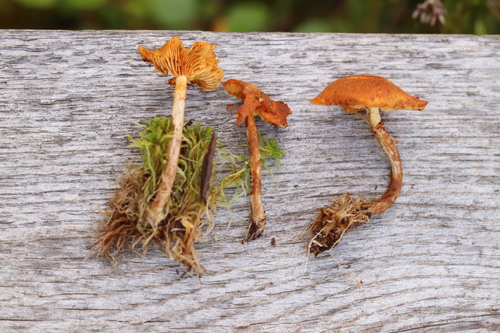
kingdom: Fungi
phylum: Basidiomycota
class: Agaricomycetes
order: Agaricales
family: Hymenogastraceae
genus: Gymnopilus
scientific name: Gymnopilus decipiens
